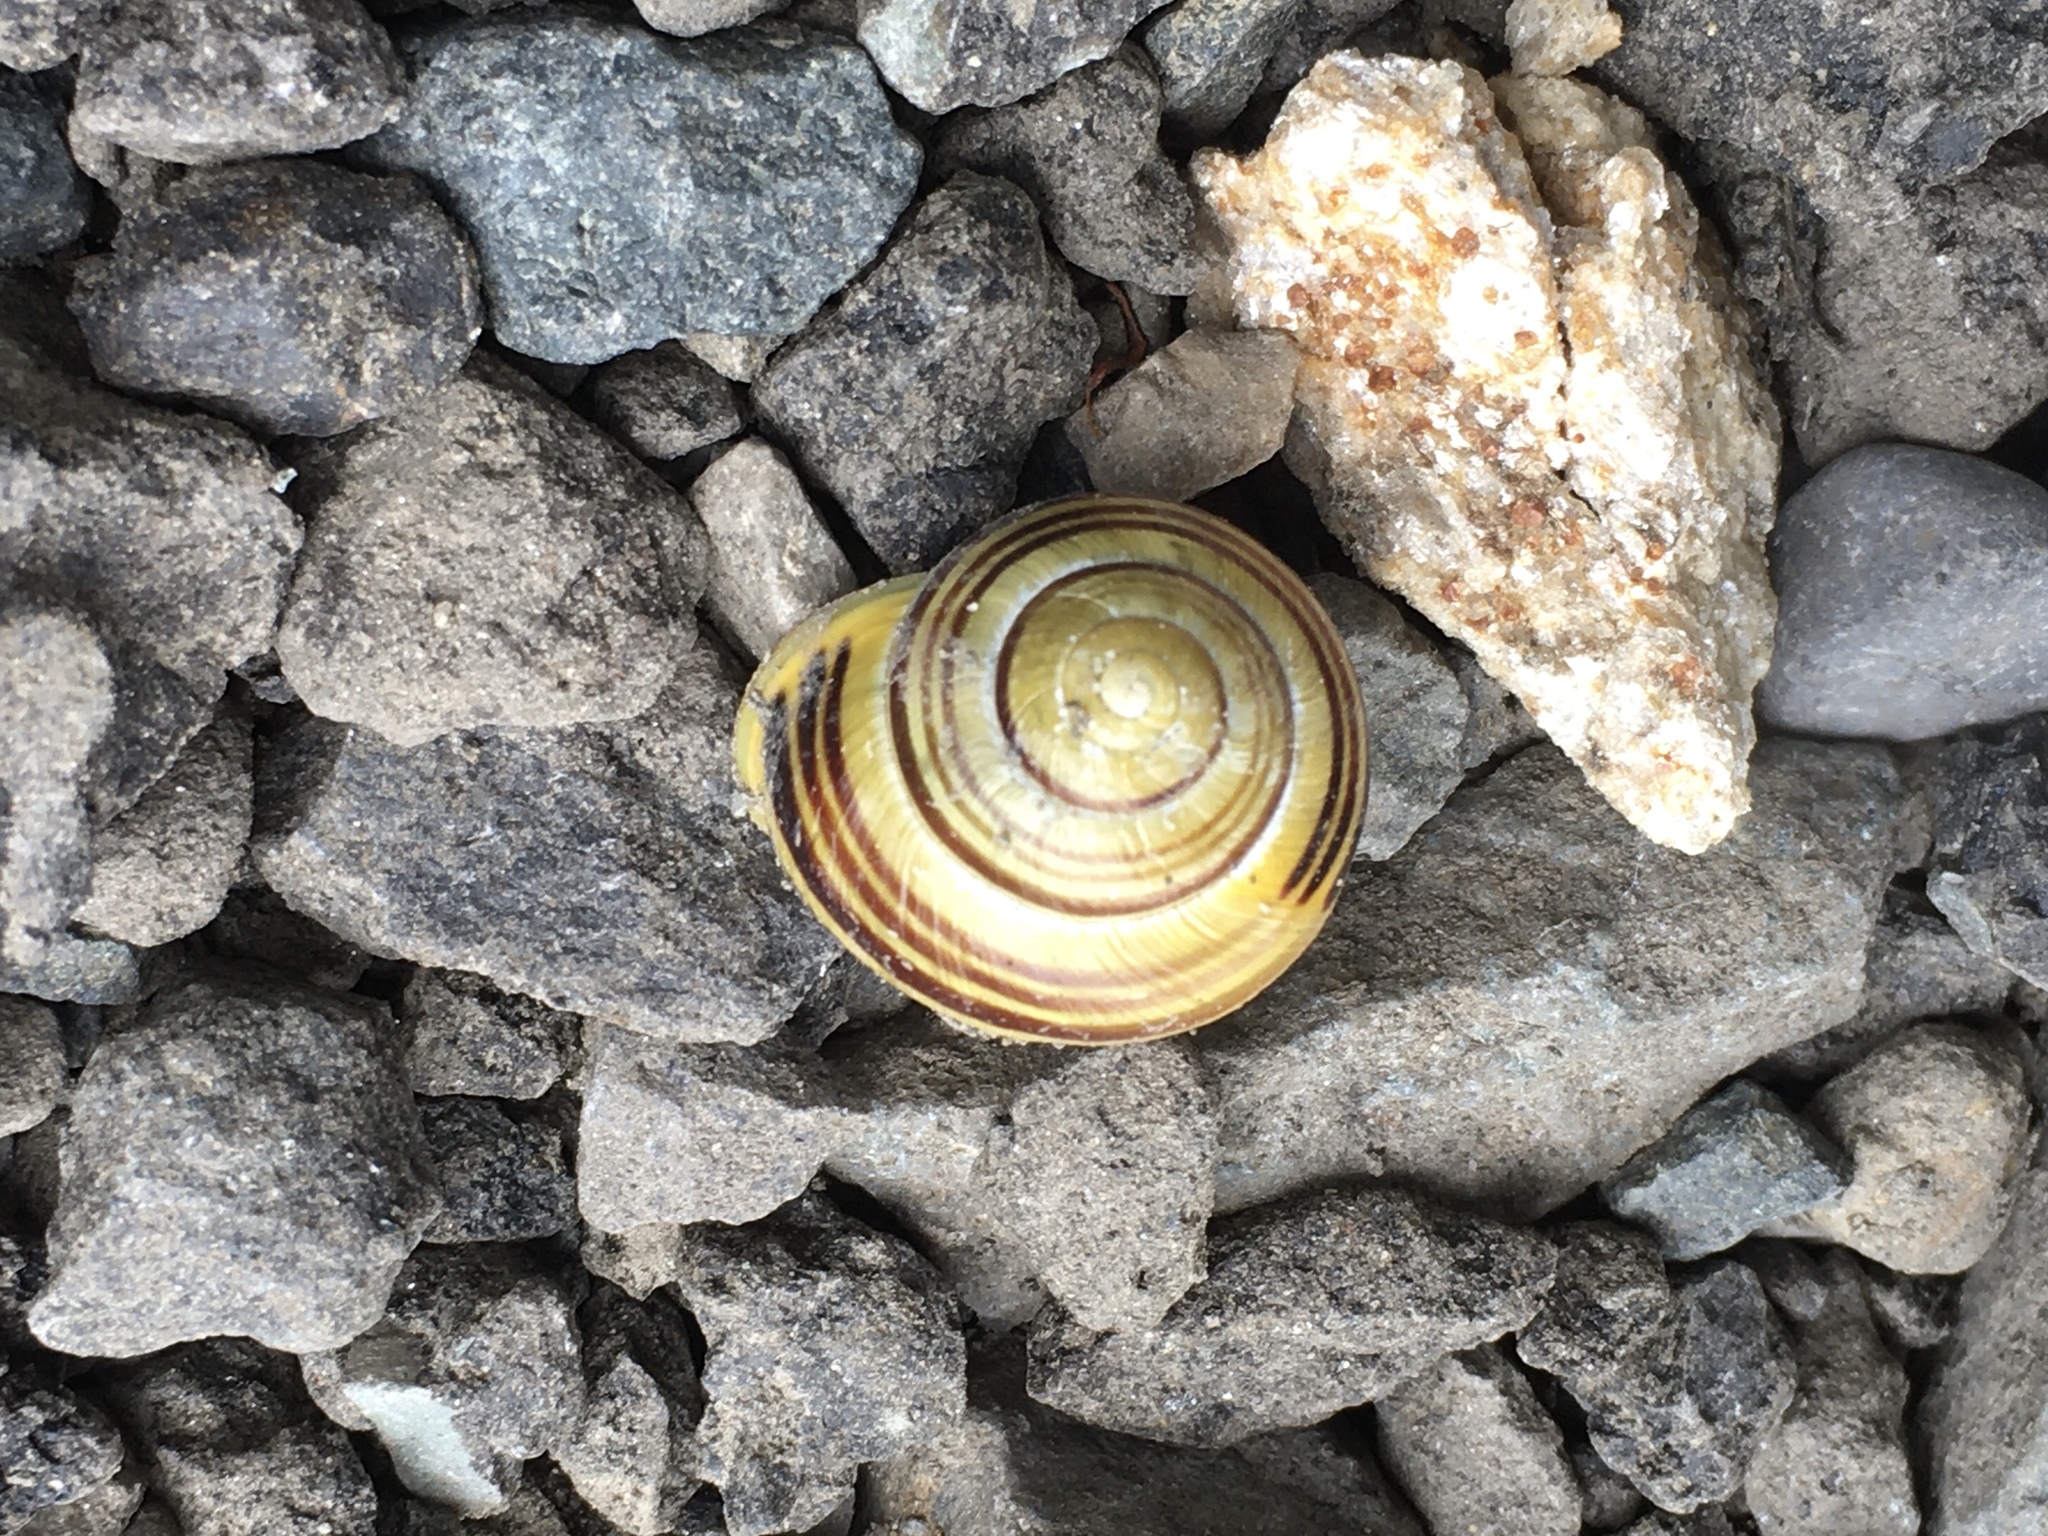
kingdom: Animalia
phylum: Mollusca
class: Gastropoda
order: Stylommatophora
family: Helicidae
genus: Cepaea
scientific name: Cepaea hortensis
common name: White-lip gardensnail
